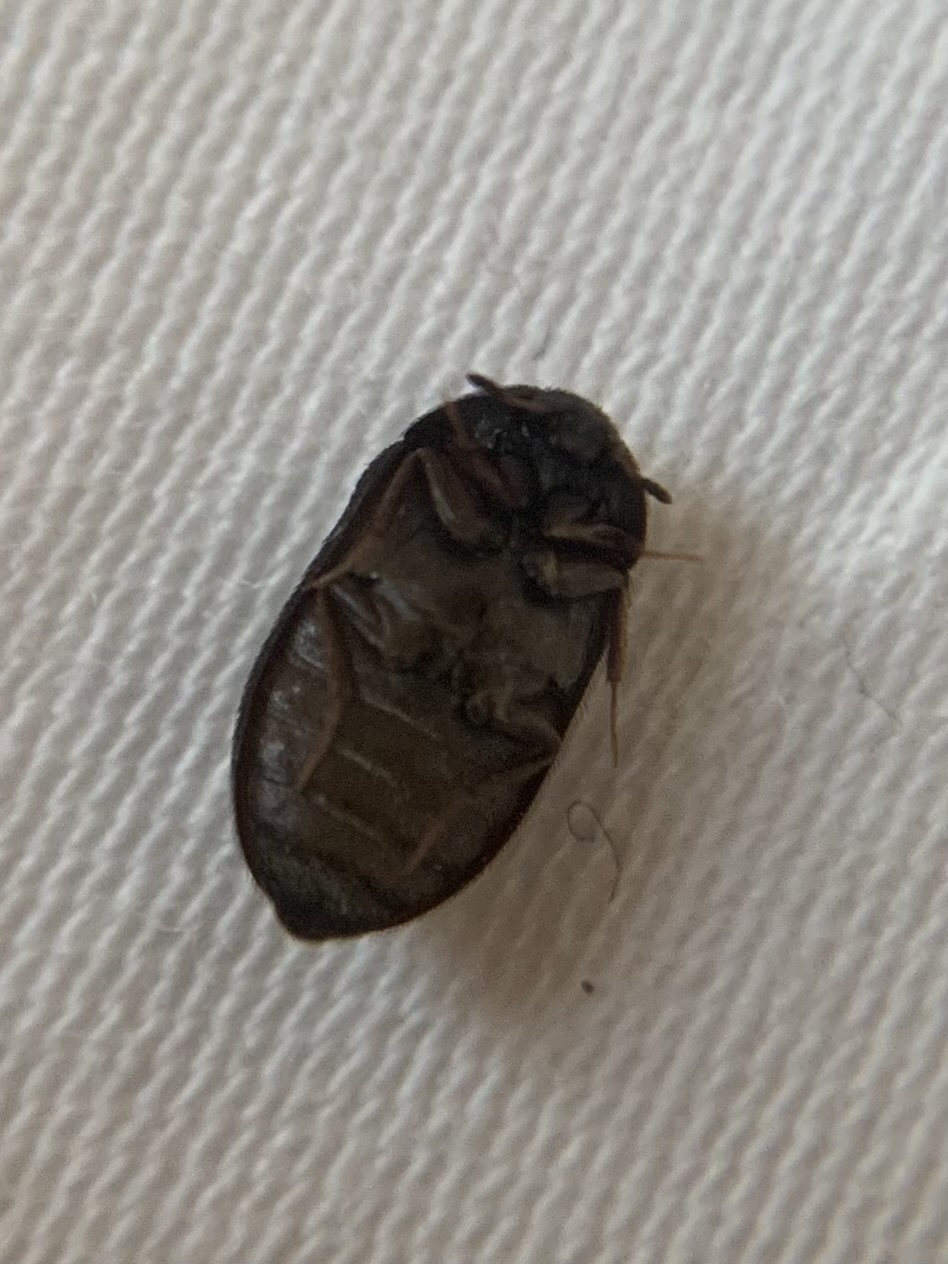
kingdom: Animalia
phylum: Arthropoda
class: Insecta
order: Coleoptera
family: Dermestidae
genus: Attagenus
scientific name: Attagenus pellio
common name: Two-spotted carpet beetle
